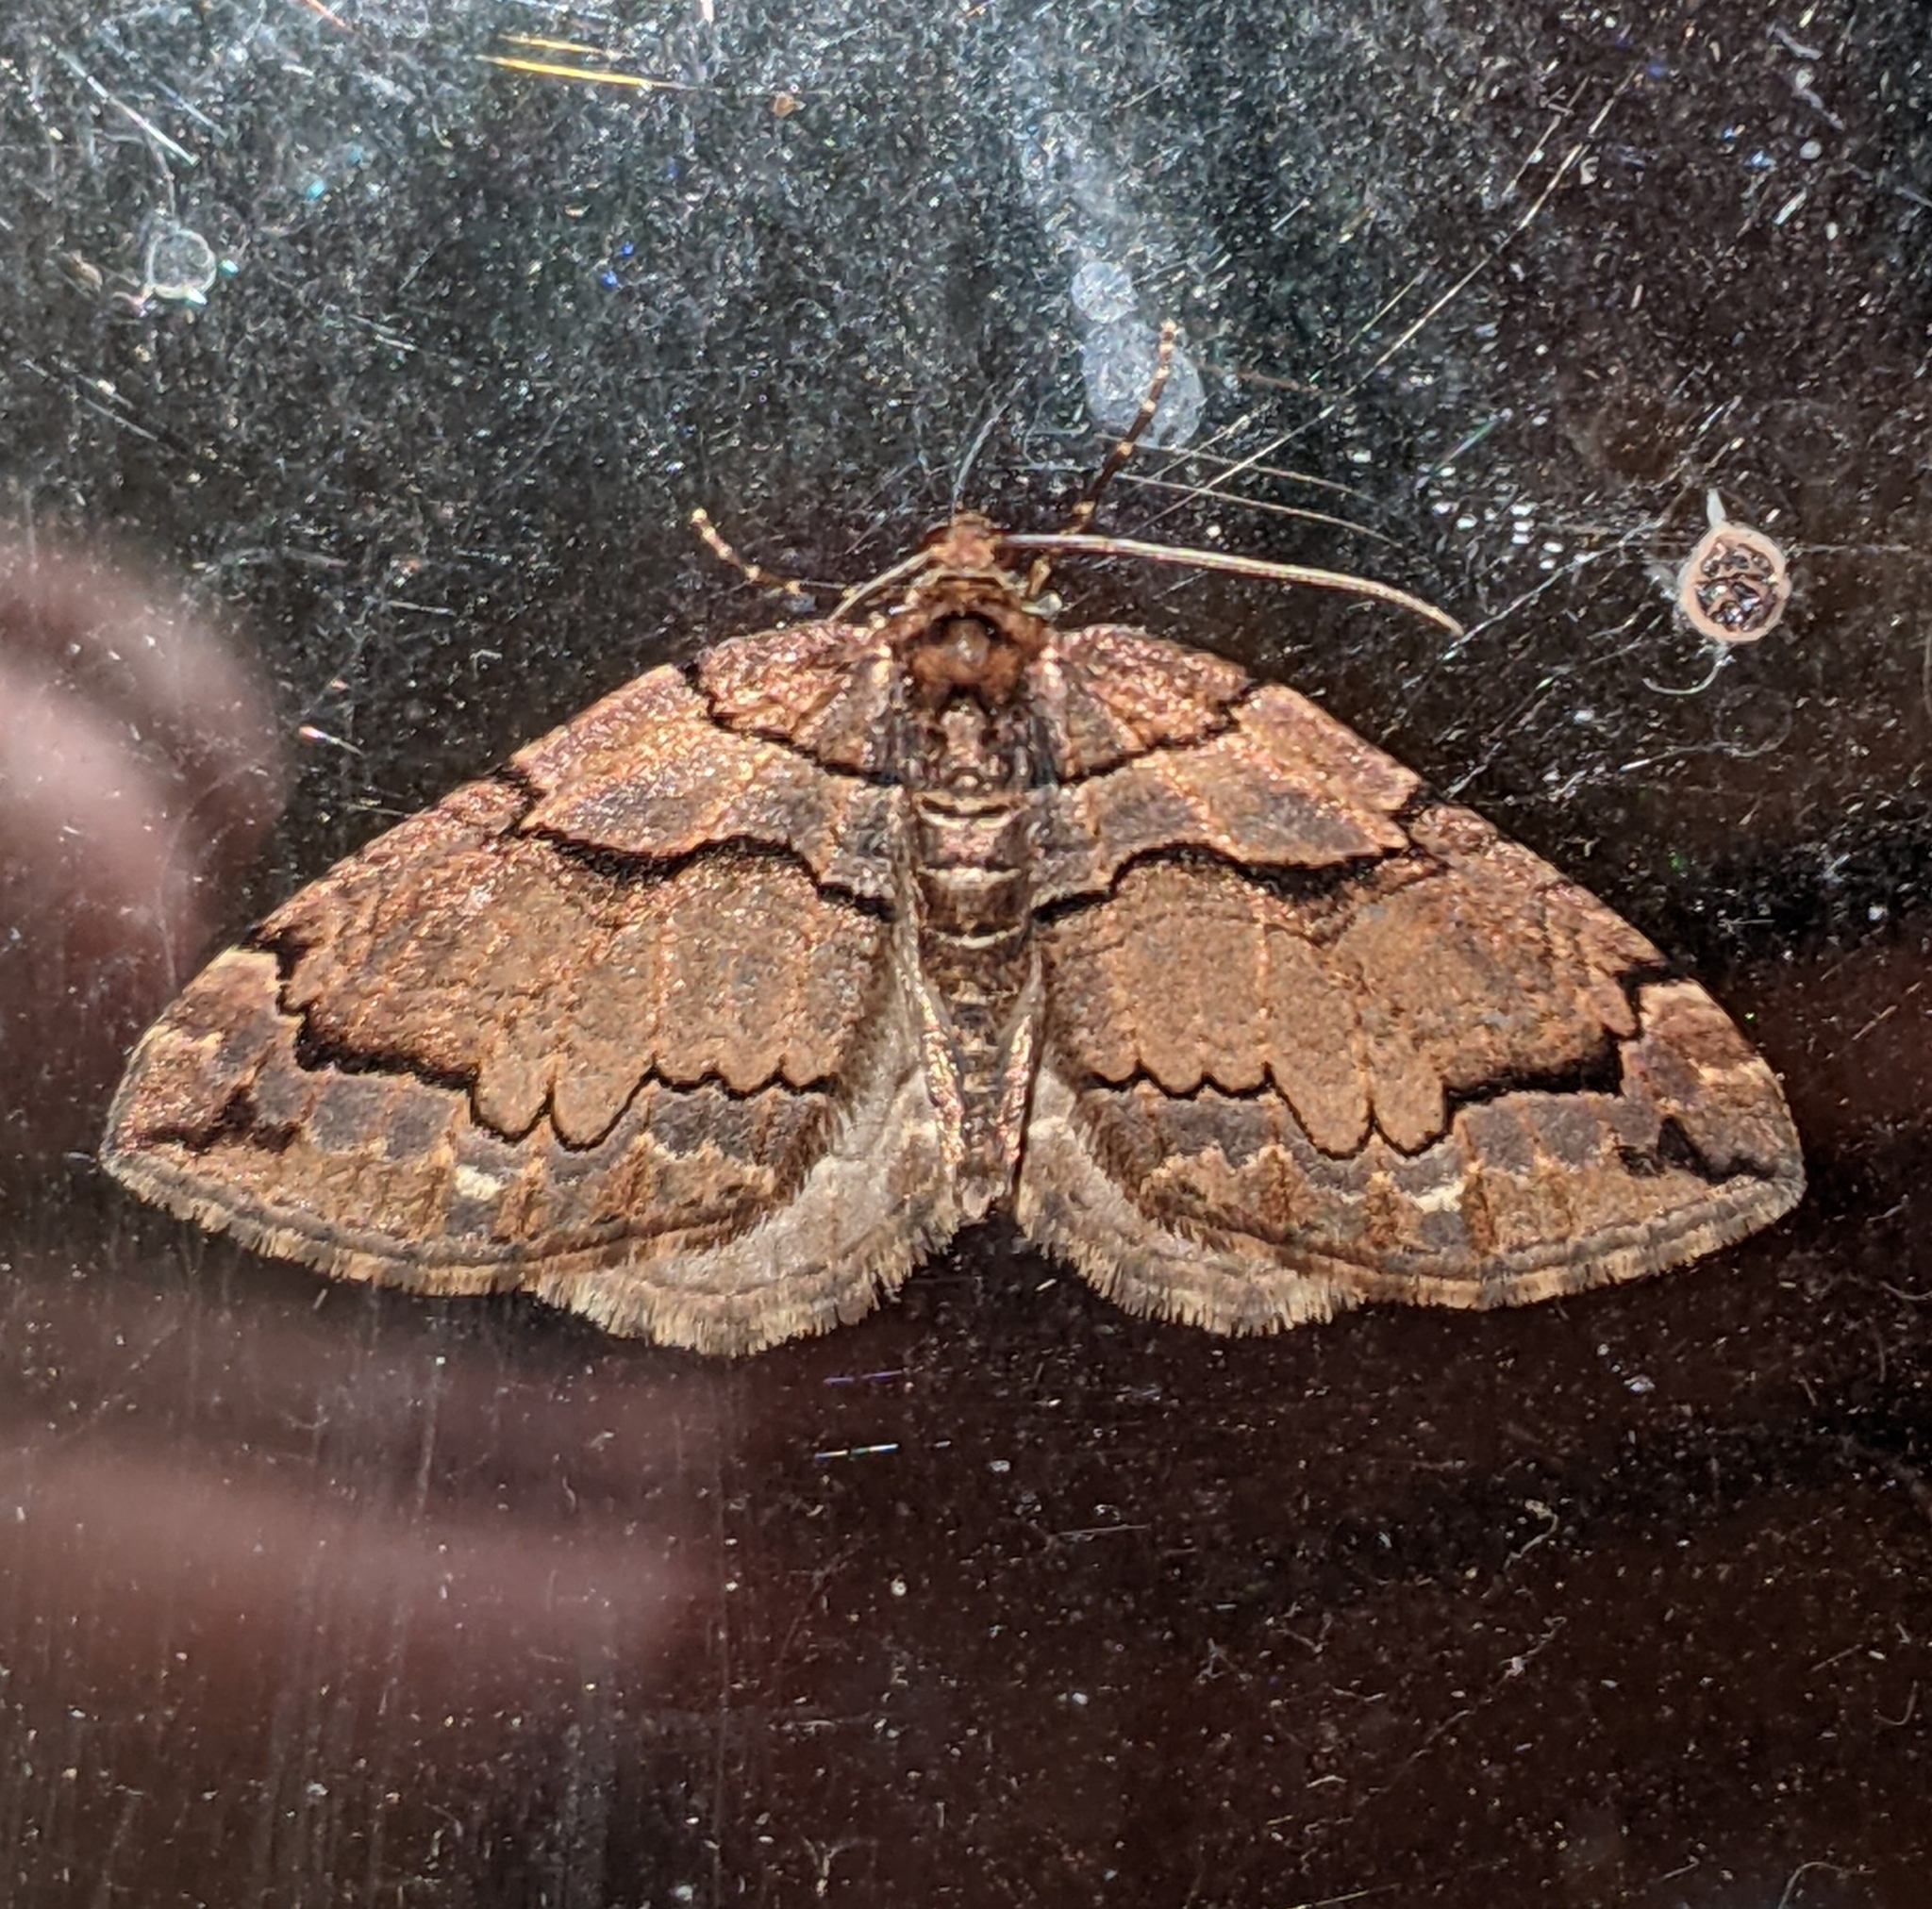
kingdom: Animalia
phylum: Arthropoda
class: Insecta
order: Lepidoptera
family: Geometridae
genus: Anticlea
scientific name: Anticlea vasiliata
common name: Variable carpet
